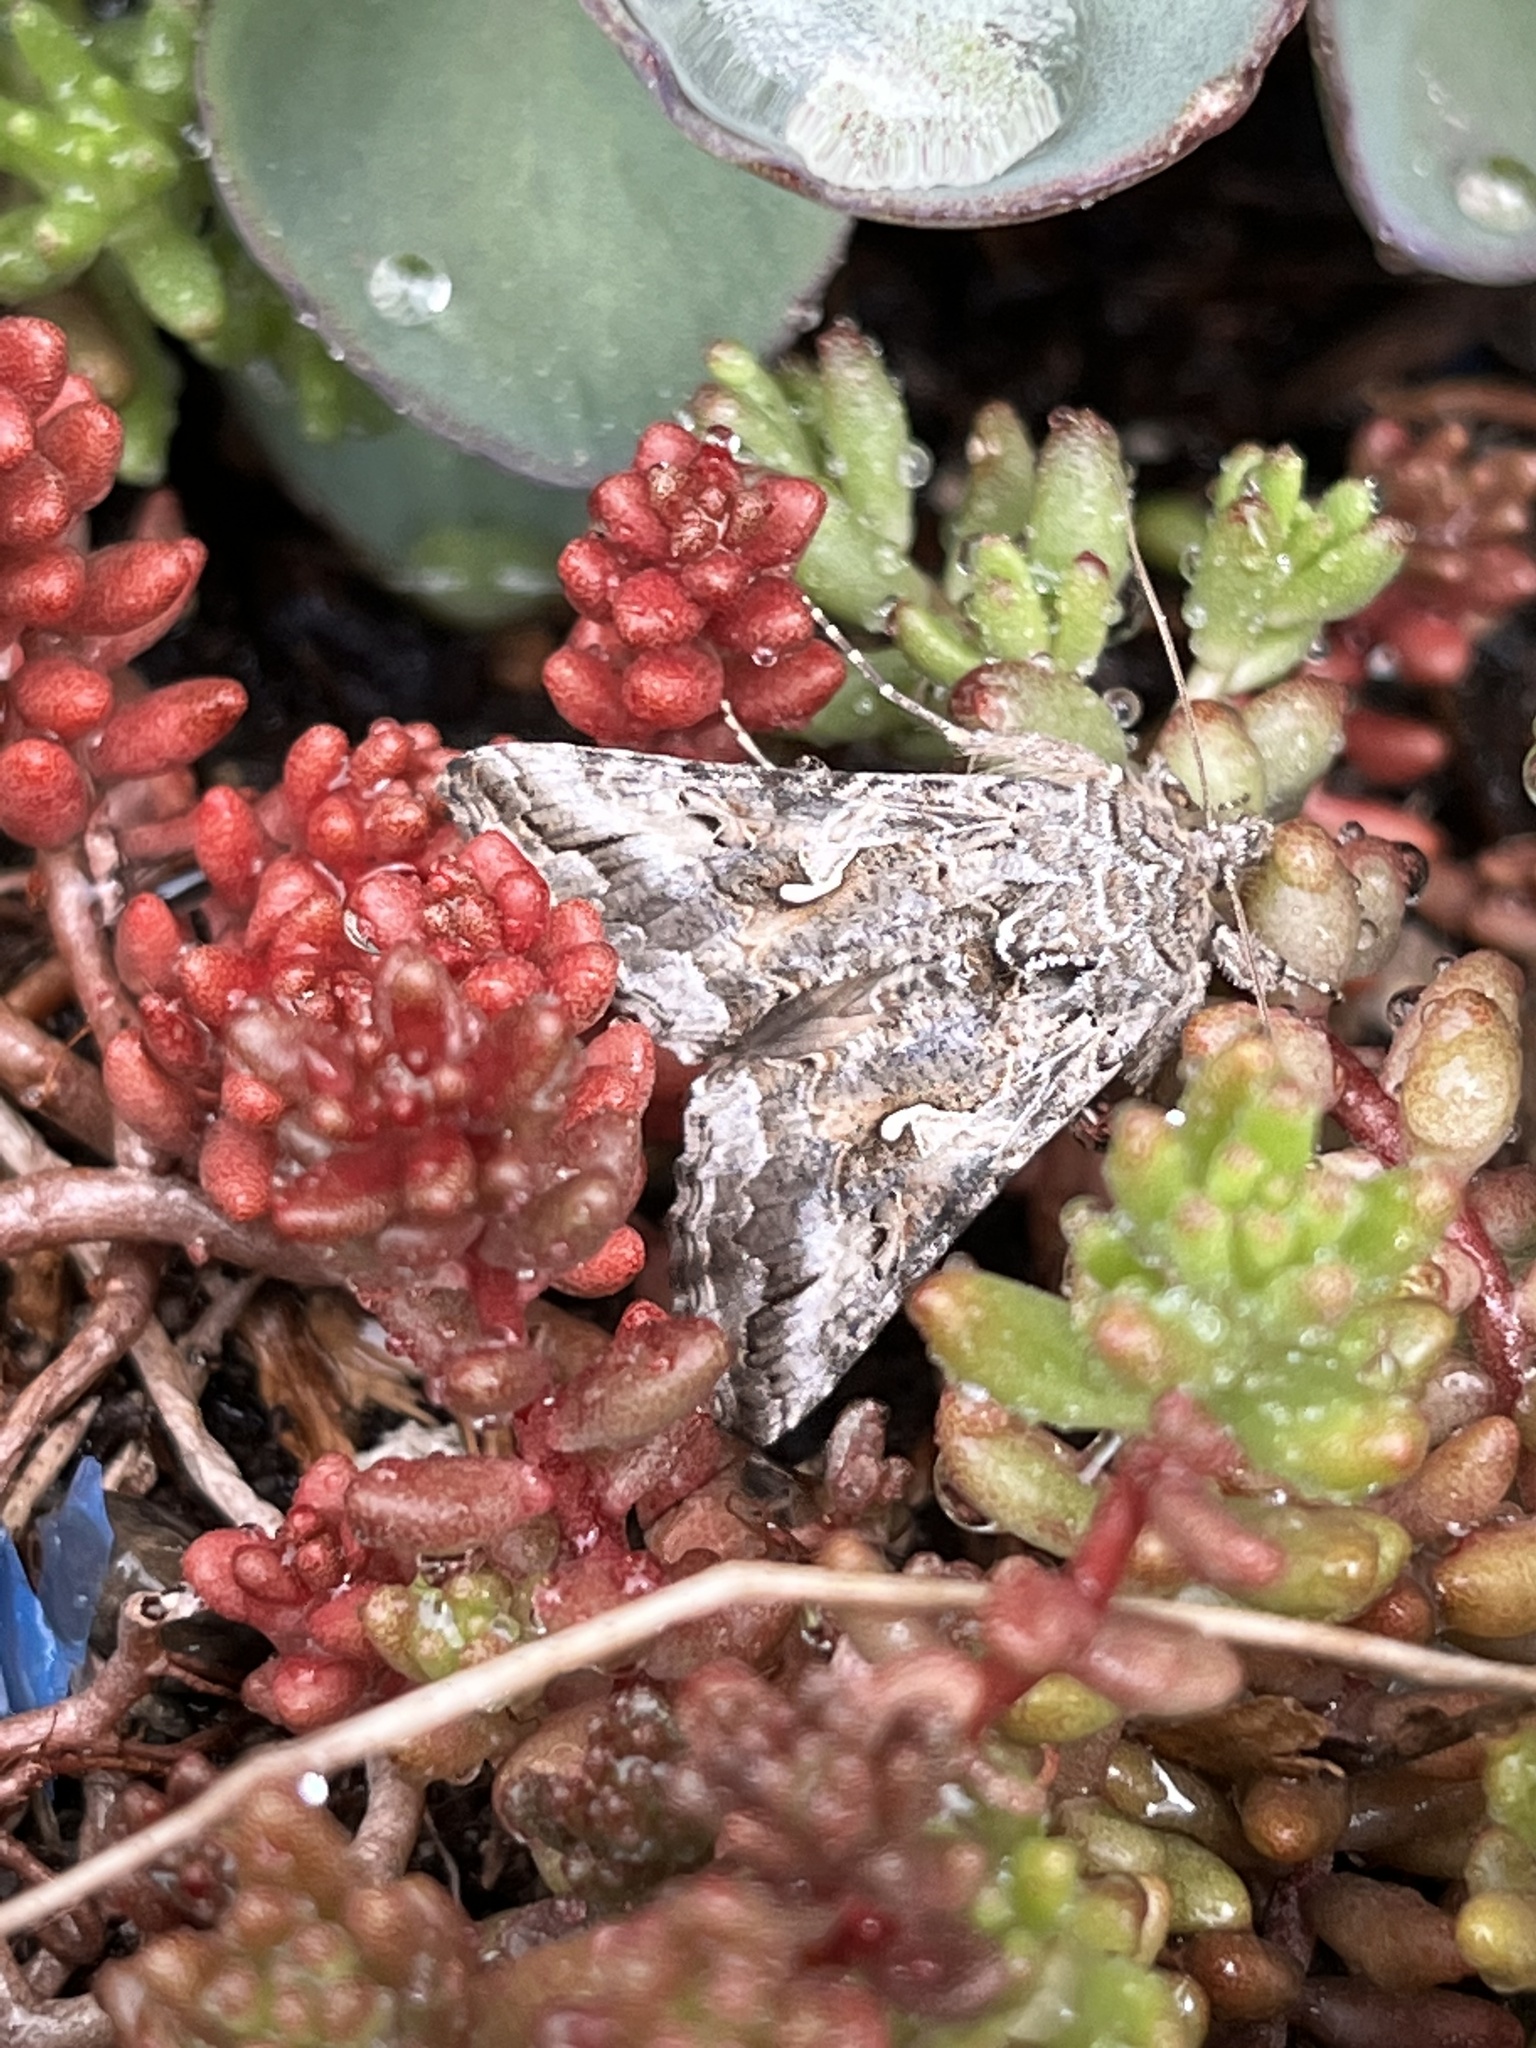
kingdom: Animalia
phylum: Arthropoda
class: Insecta
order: Lepidoptera
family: Noctuidae
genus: Autographa
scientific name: Autographa californica
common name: Alfalfa looper
